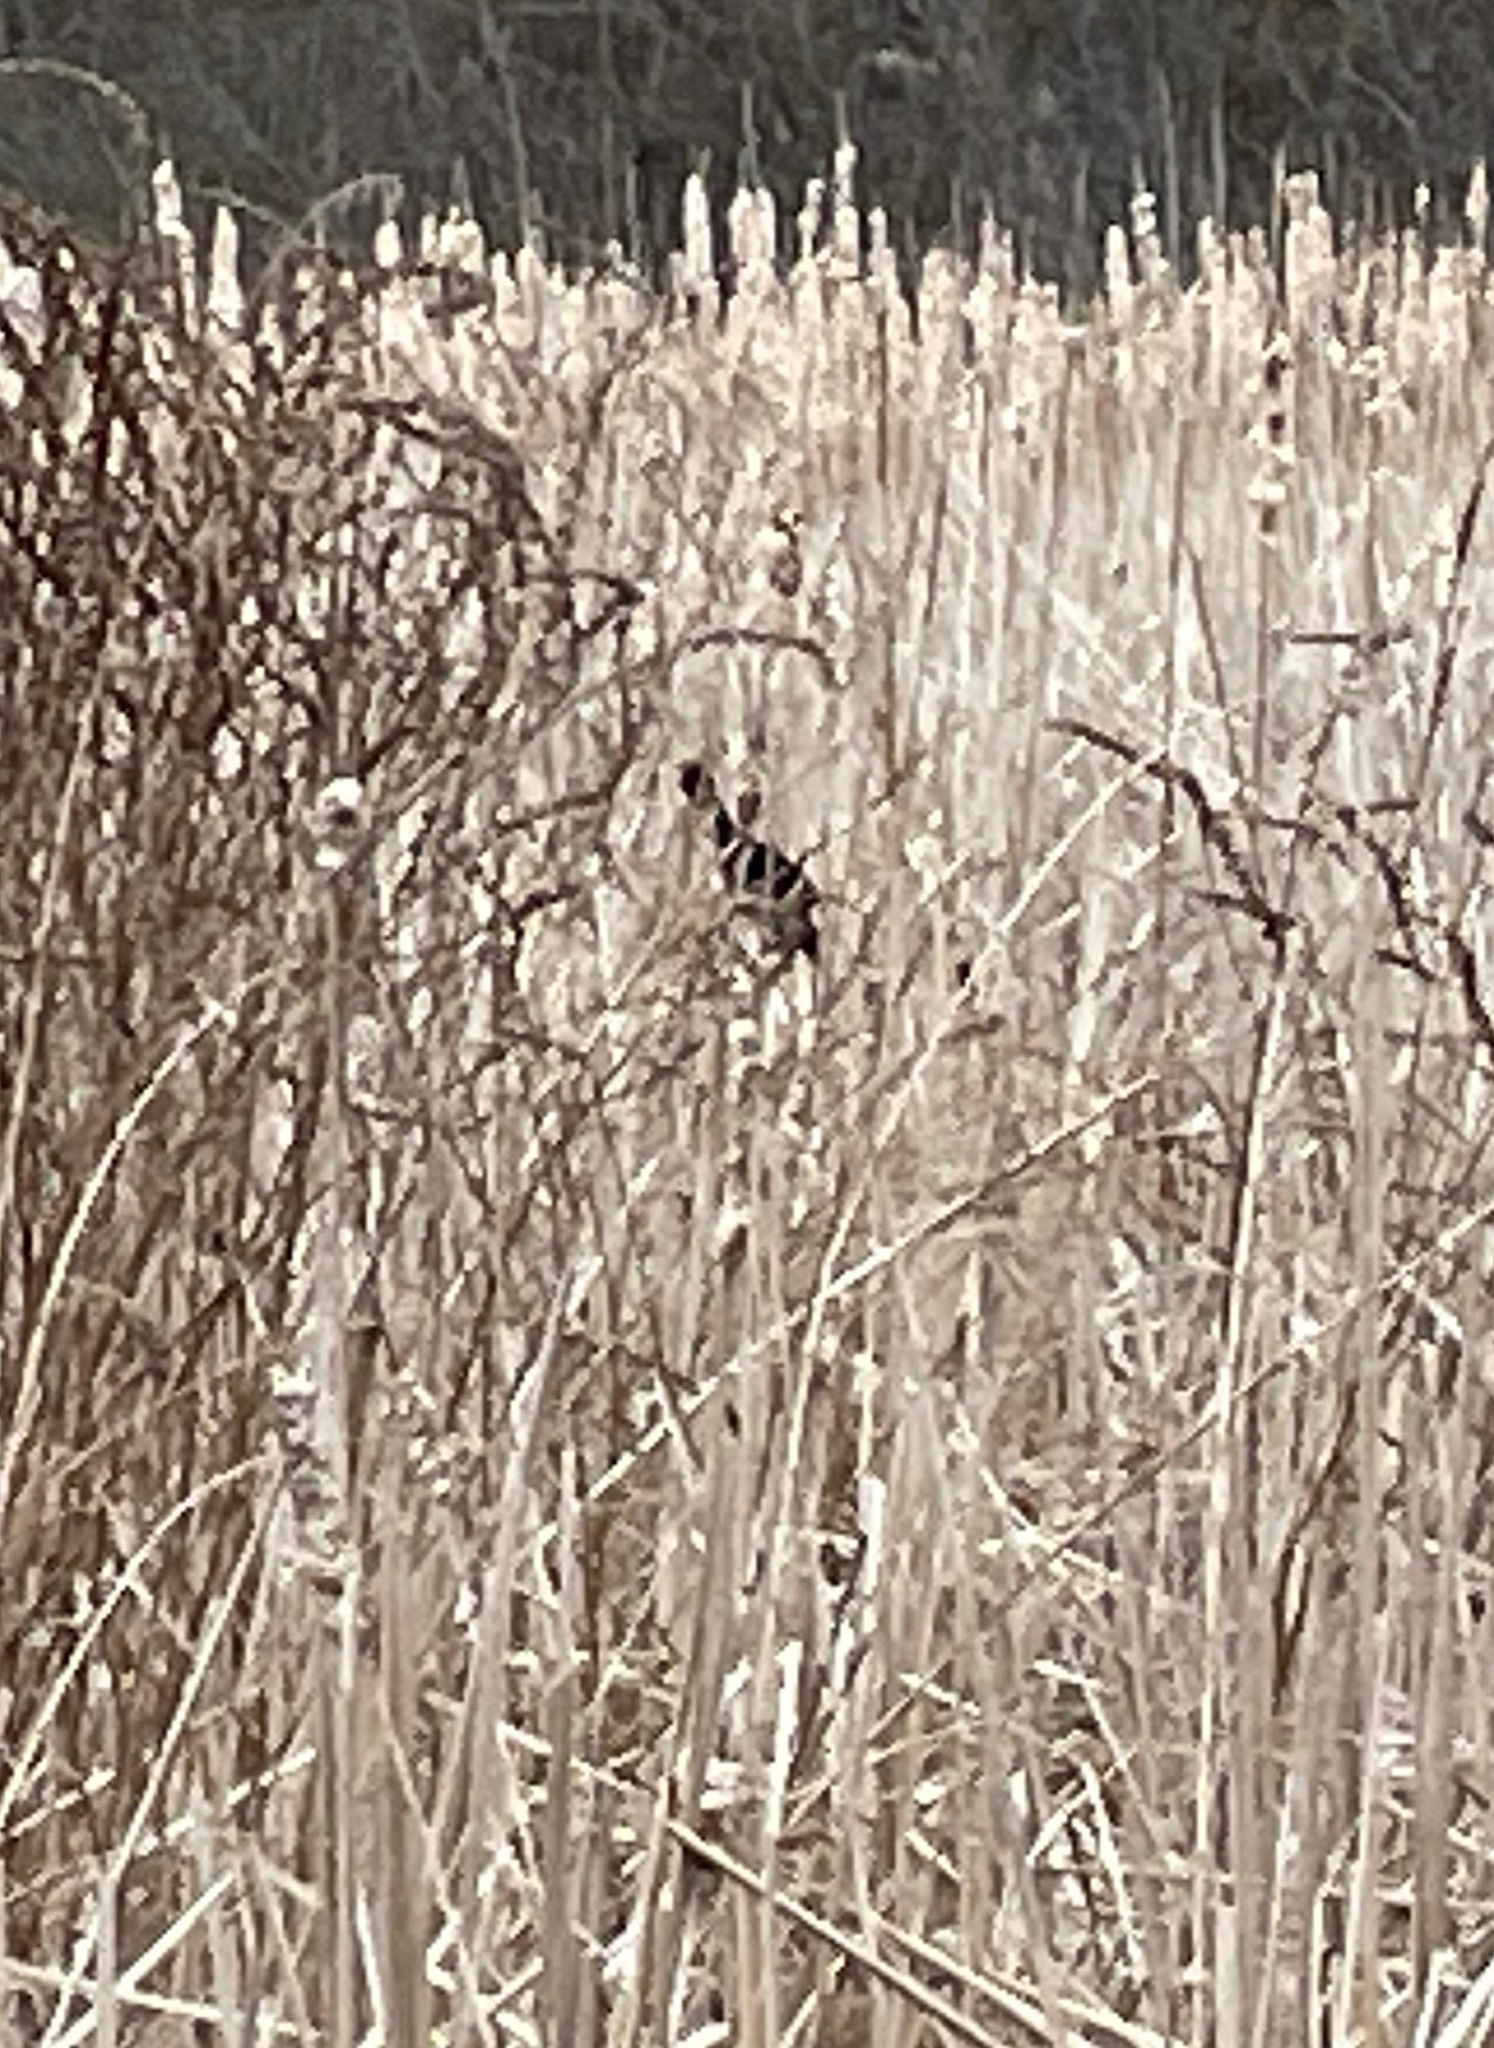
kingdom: Animalia
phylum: Chordata
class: Aves
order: Passeriformes
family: Icteridae
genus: Agelaius
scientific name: Agelaius phoeniceus
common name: Red-winged blackbird
